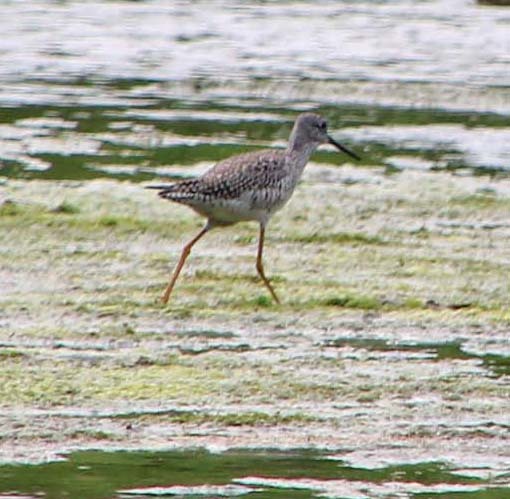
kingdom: Animalia
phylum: Chordata
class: Aves
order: Charadriiformes
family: Scolopacidae
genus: Tringa
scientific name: Tringa melanoleuca
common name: Greater yellowlegs
